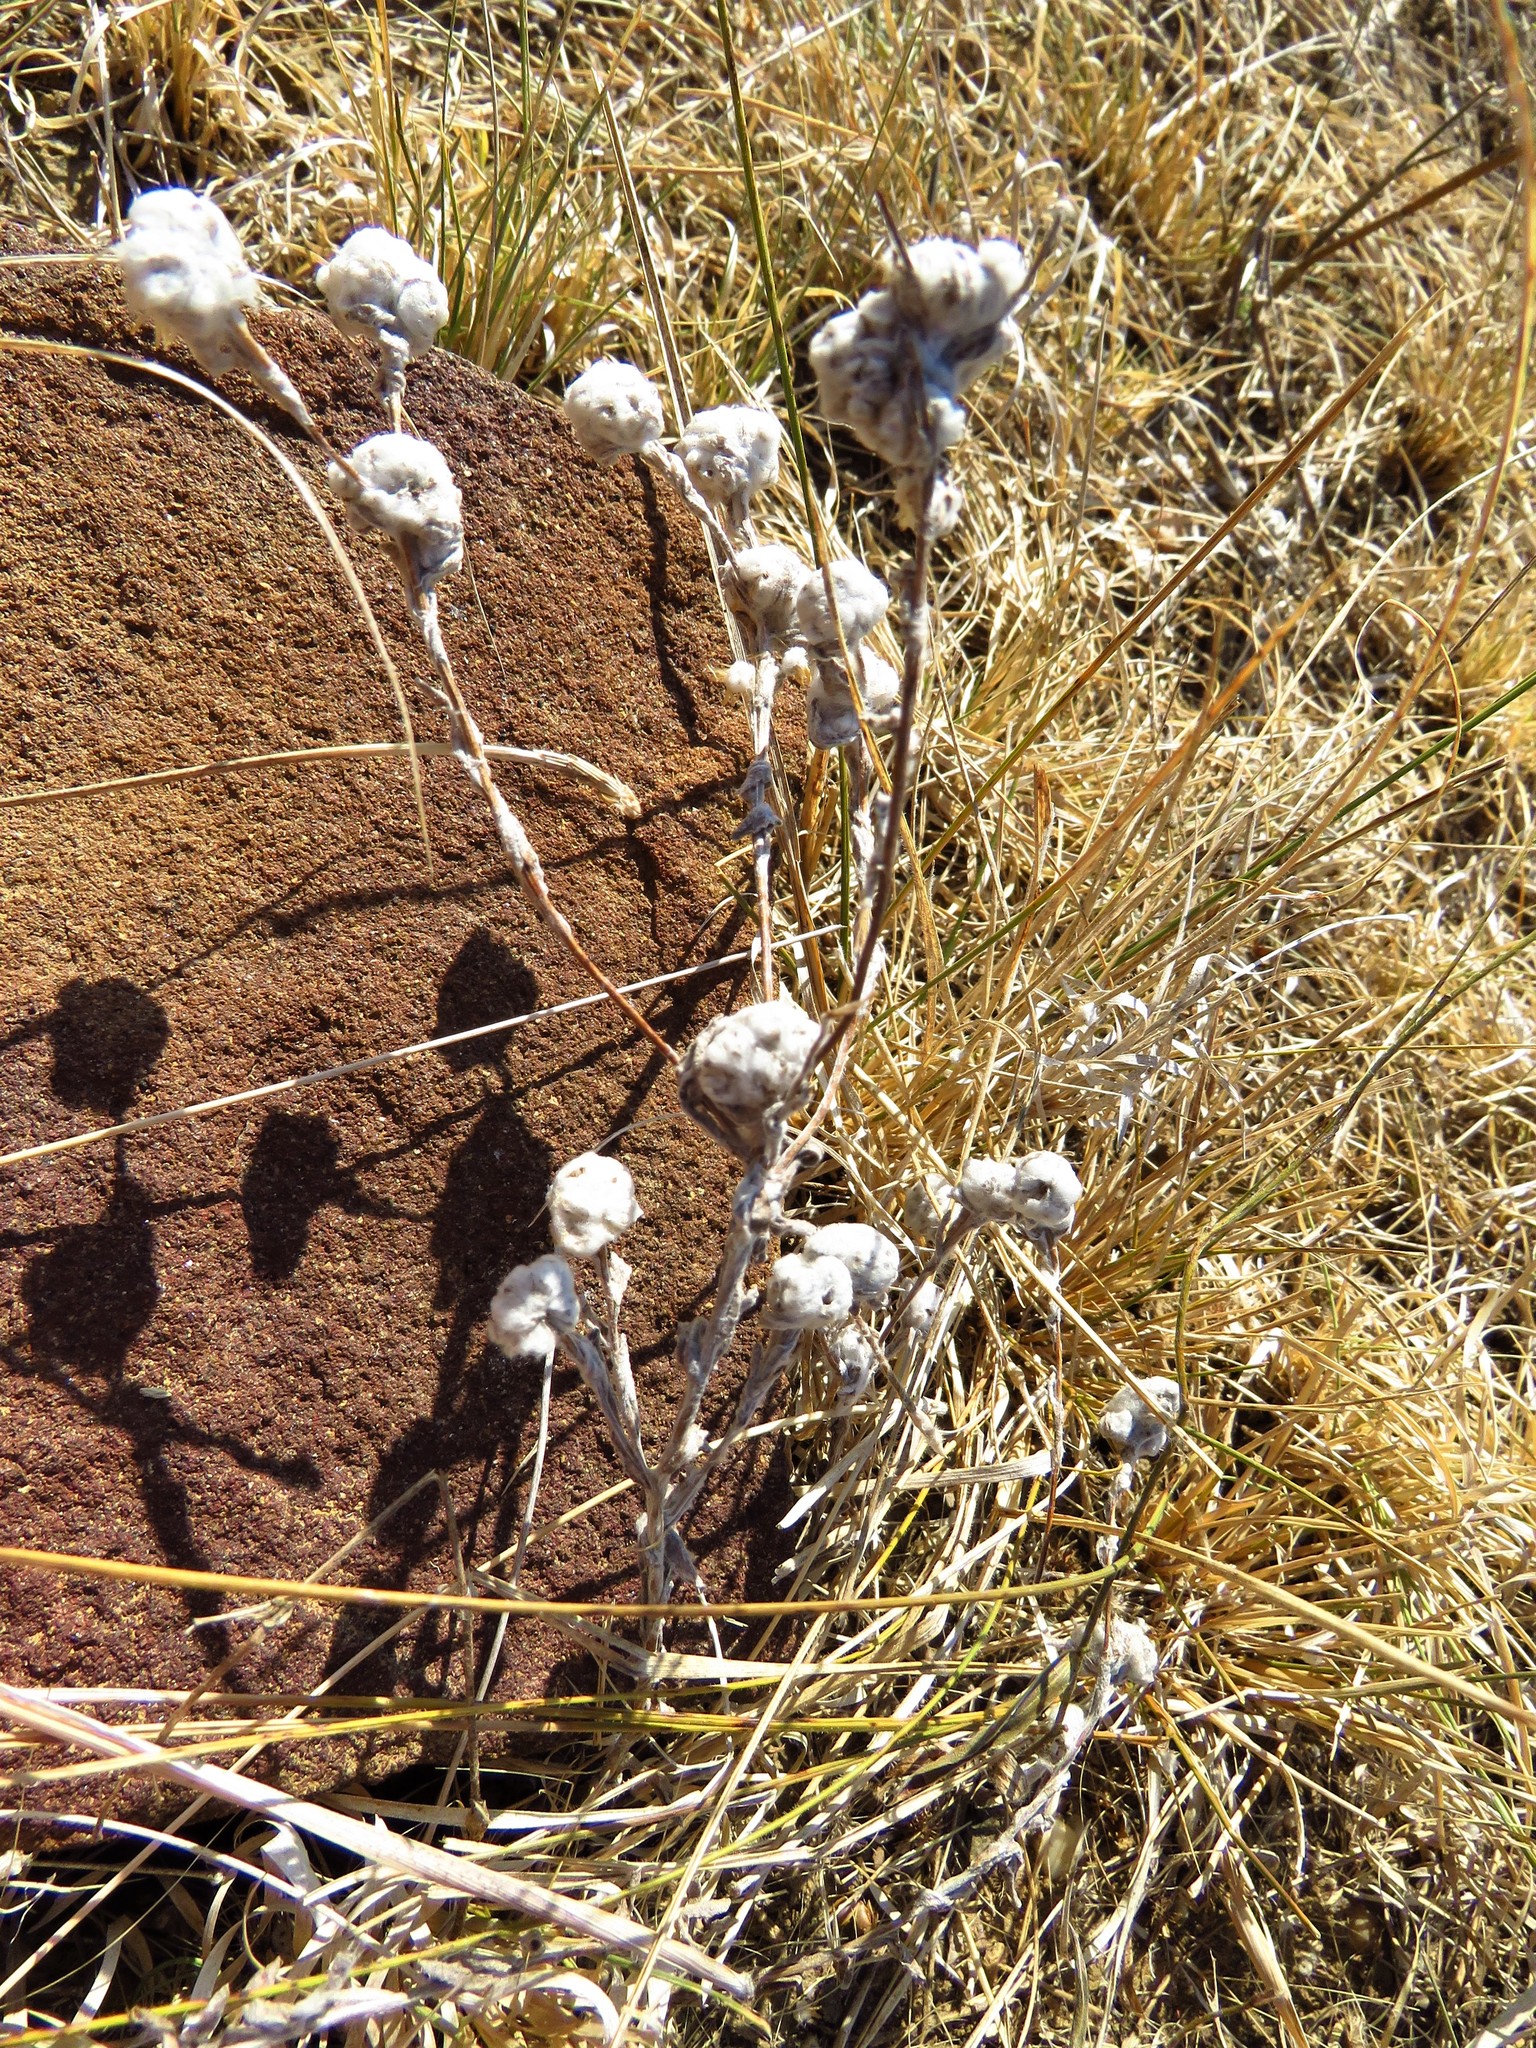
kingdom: Plantae
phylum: Tracheophyta
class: Magnoliopsida
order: Asterales
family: Asteraceae
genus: Diaperia
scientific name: Diaperia verna
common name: Many-stem rabbit-tobacco
